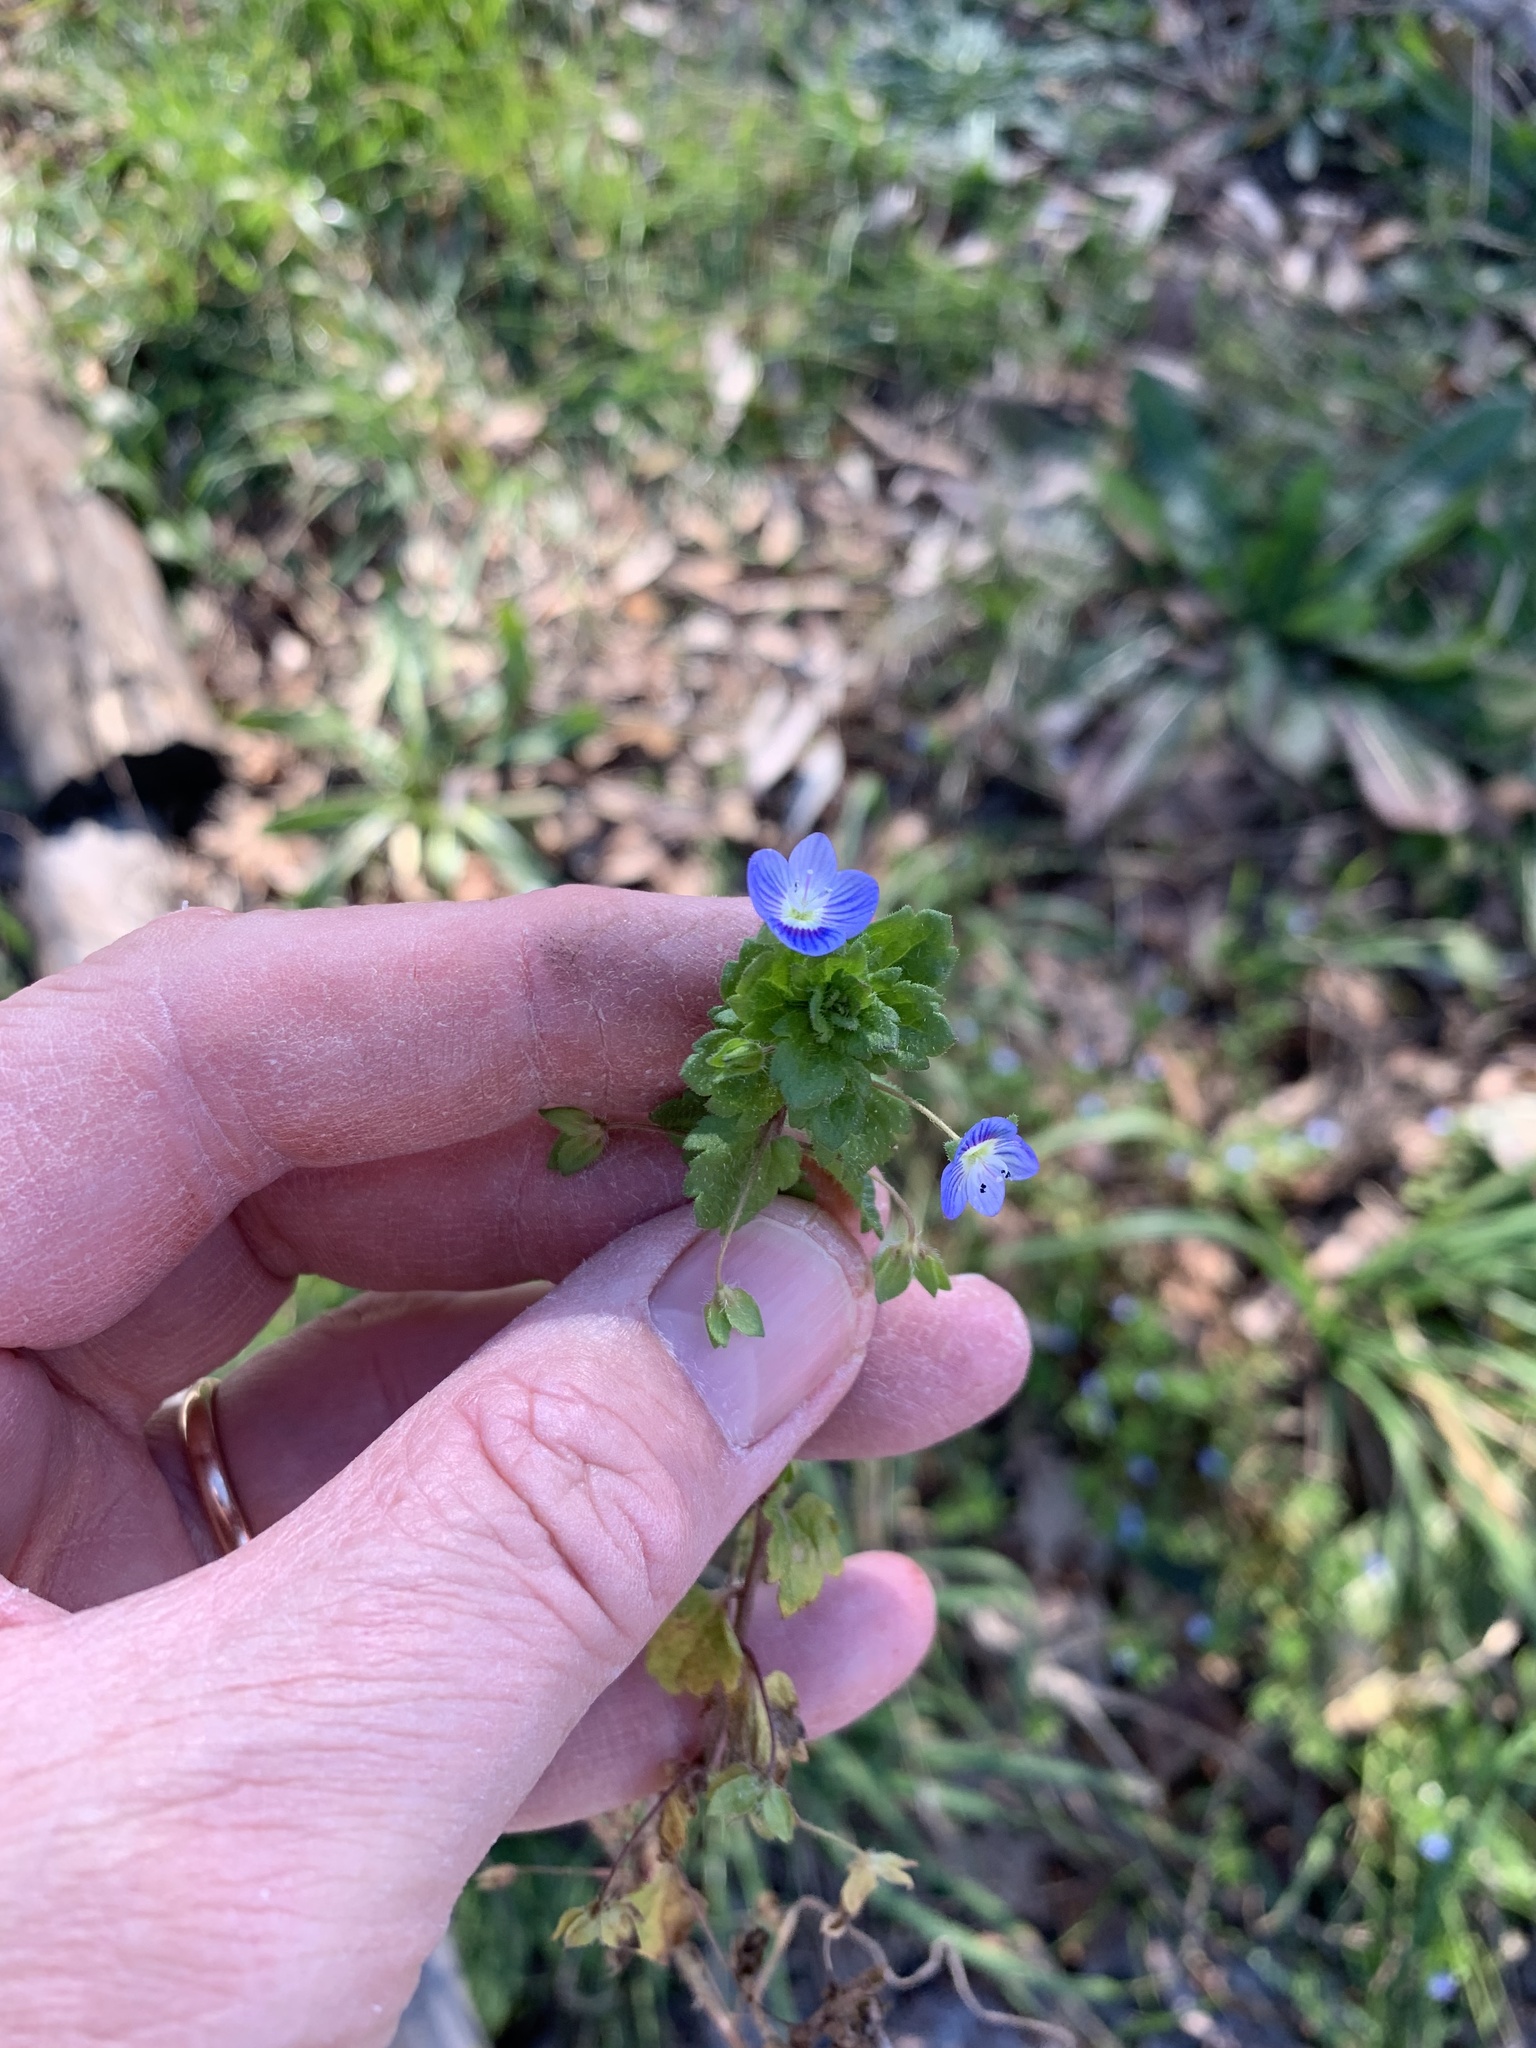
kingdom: Plantae
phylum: Tracheophyta
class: Magnoliopsida
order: Lamiales
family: Plantaginaceae
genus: Veronica
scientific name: Veronica persica
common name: Common field-speedwell
